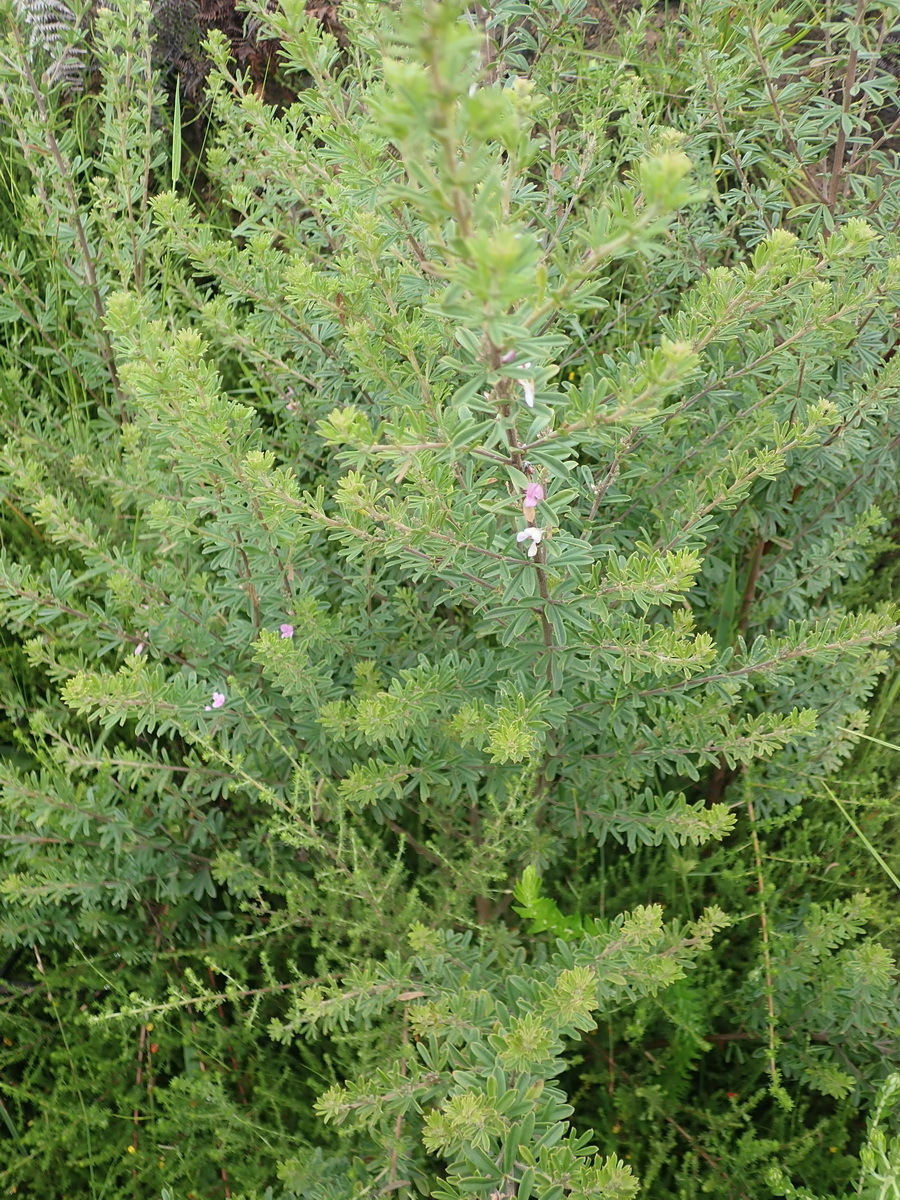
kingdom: Plantae
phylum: Tracheophyta
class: Magnoliopsida
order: Fabales
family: Fabaceae
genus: Indigofera
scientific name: Indigofera flabellata
